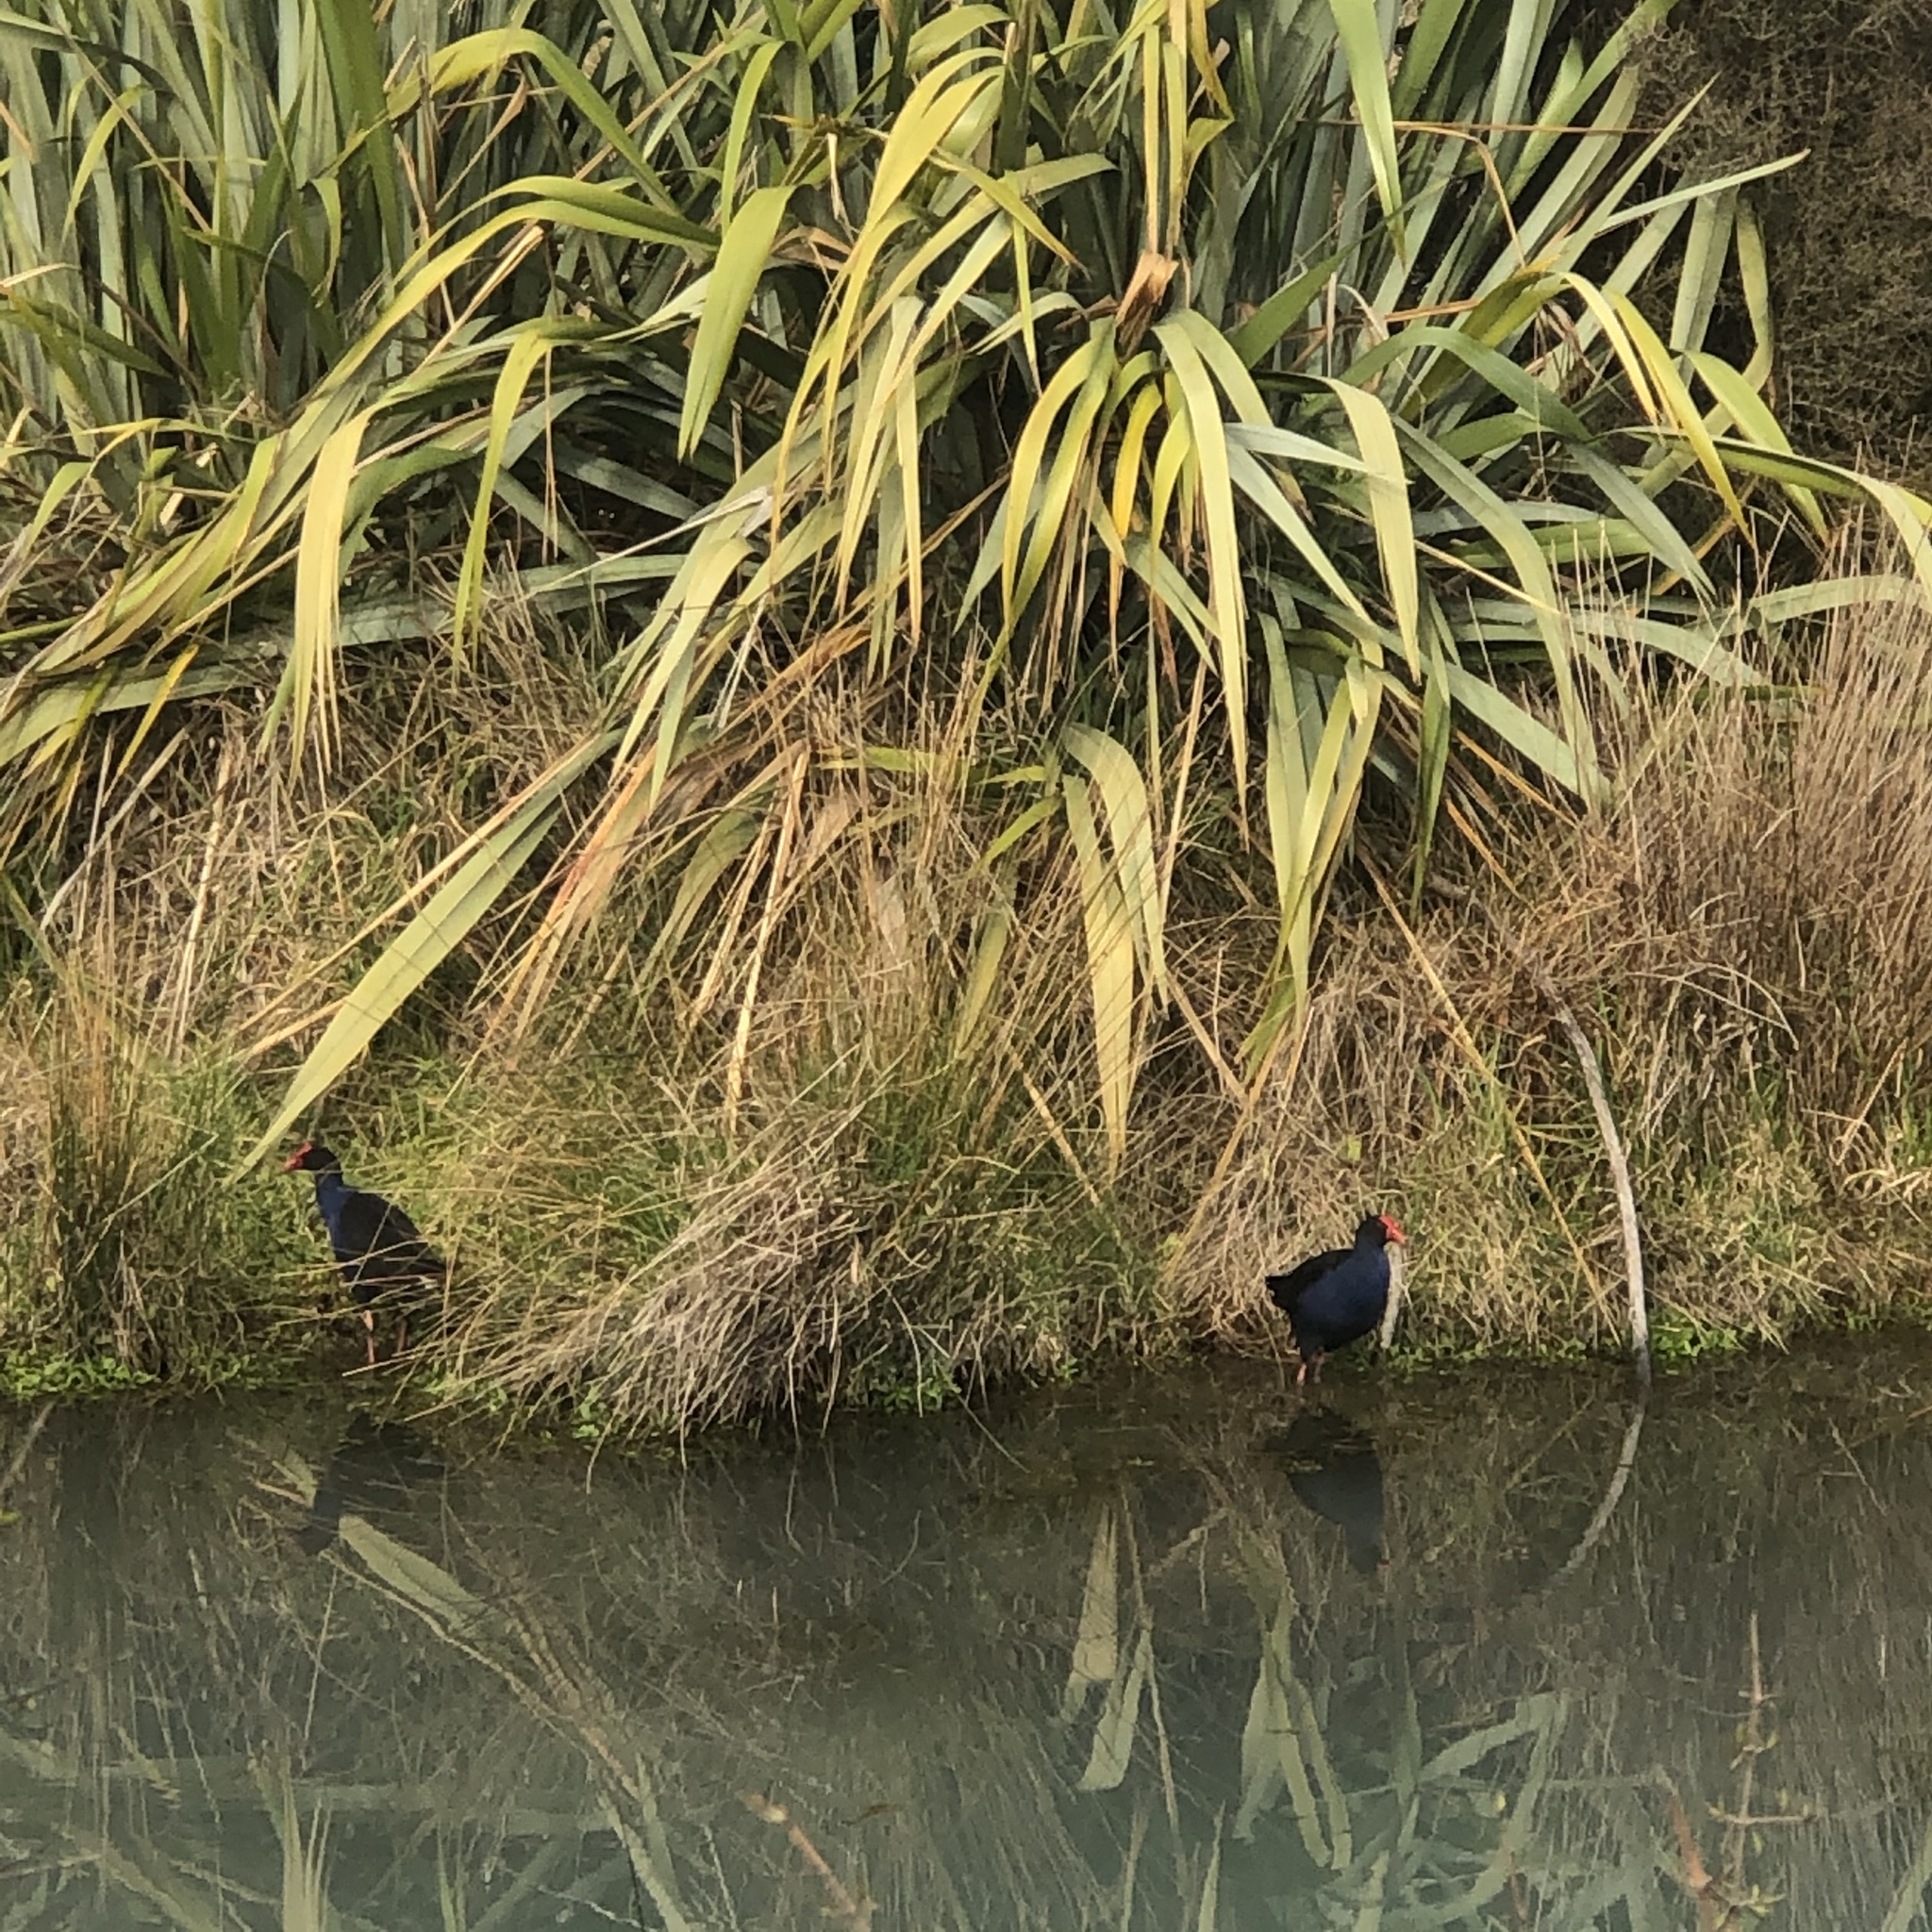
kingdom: Animalia
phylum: Chordata
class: Aves
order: Gruiformes
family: Rallidae
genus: Porphyrio
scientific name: Porphyrio melanotus
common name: Australasian swamphen
